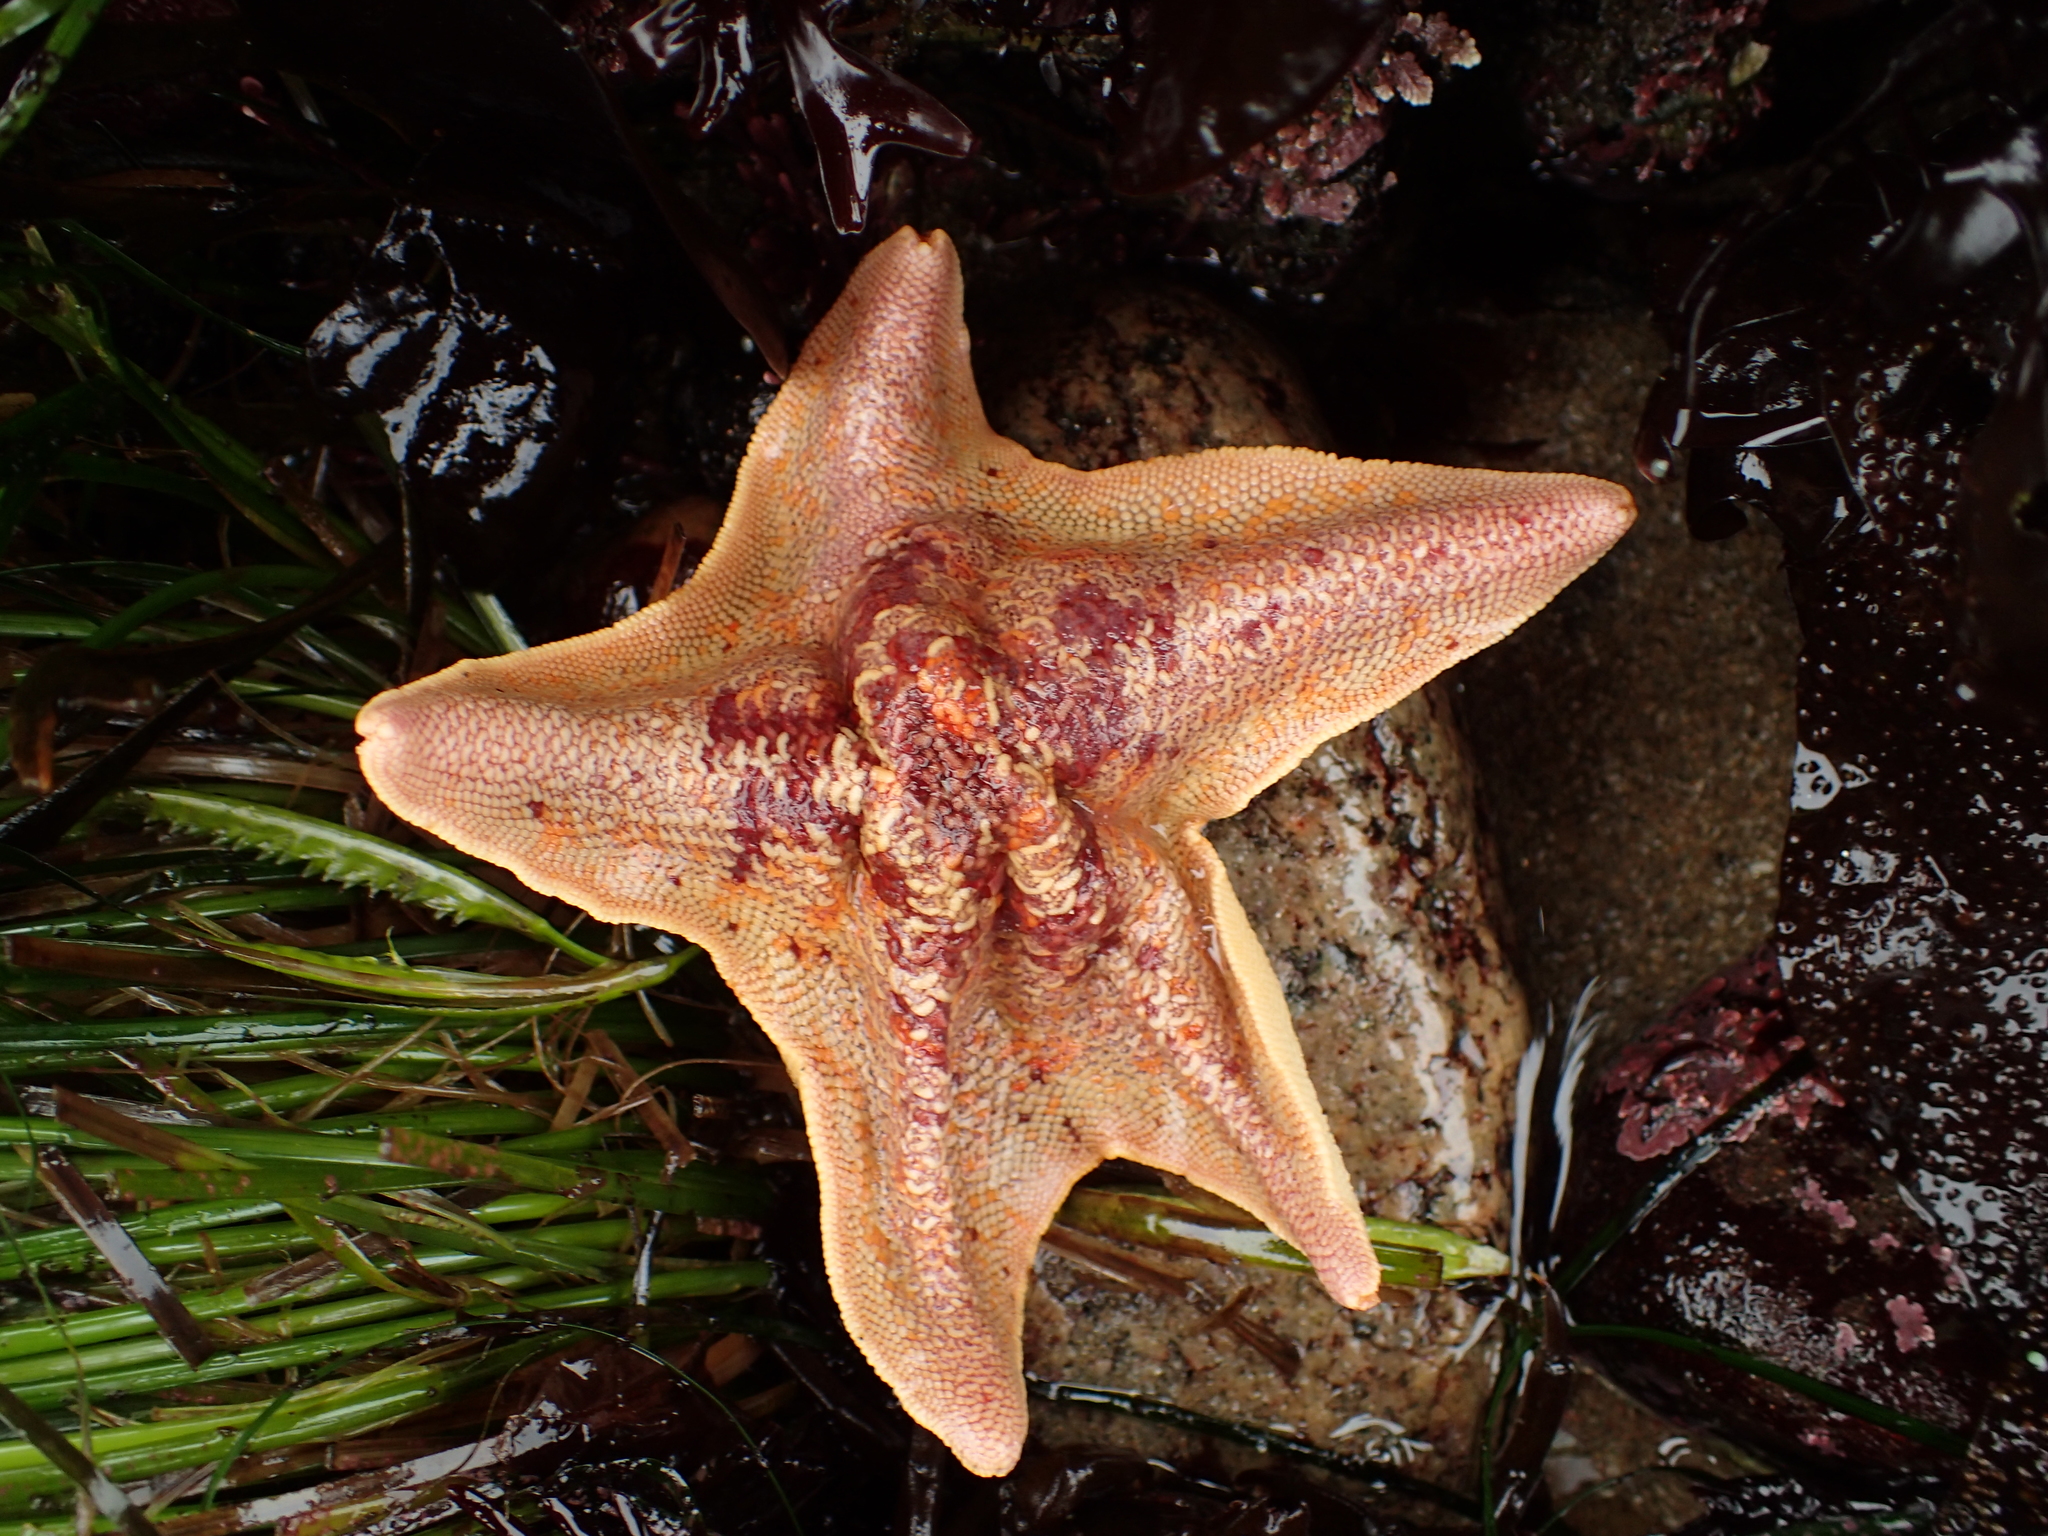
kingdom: Animalia
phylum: Echinodermata
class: Asteroidea
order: Valvatida
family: Asterinidae
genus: Patiria
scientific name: Patiria miniata
